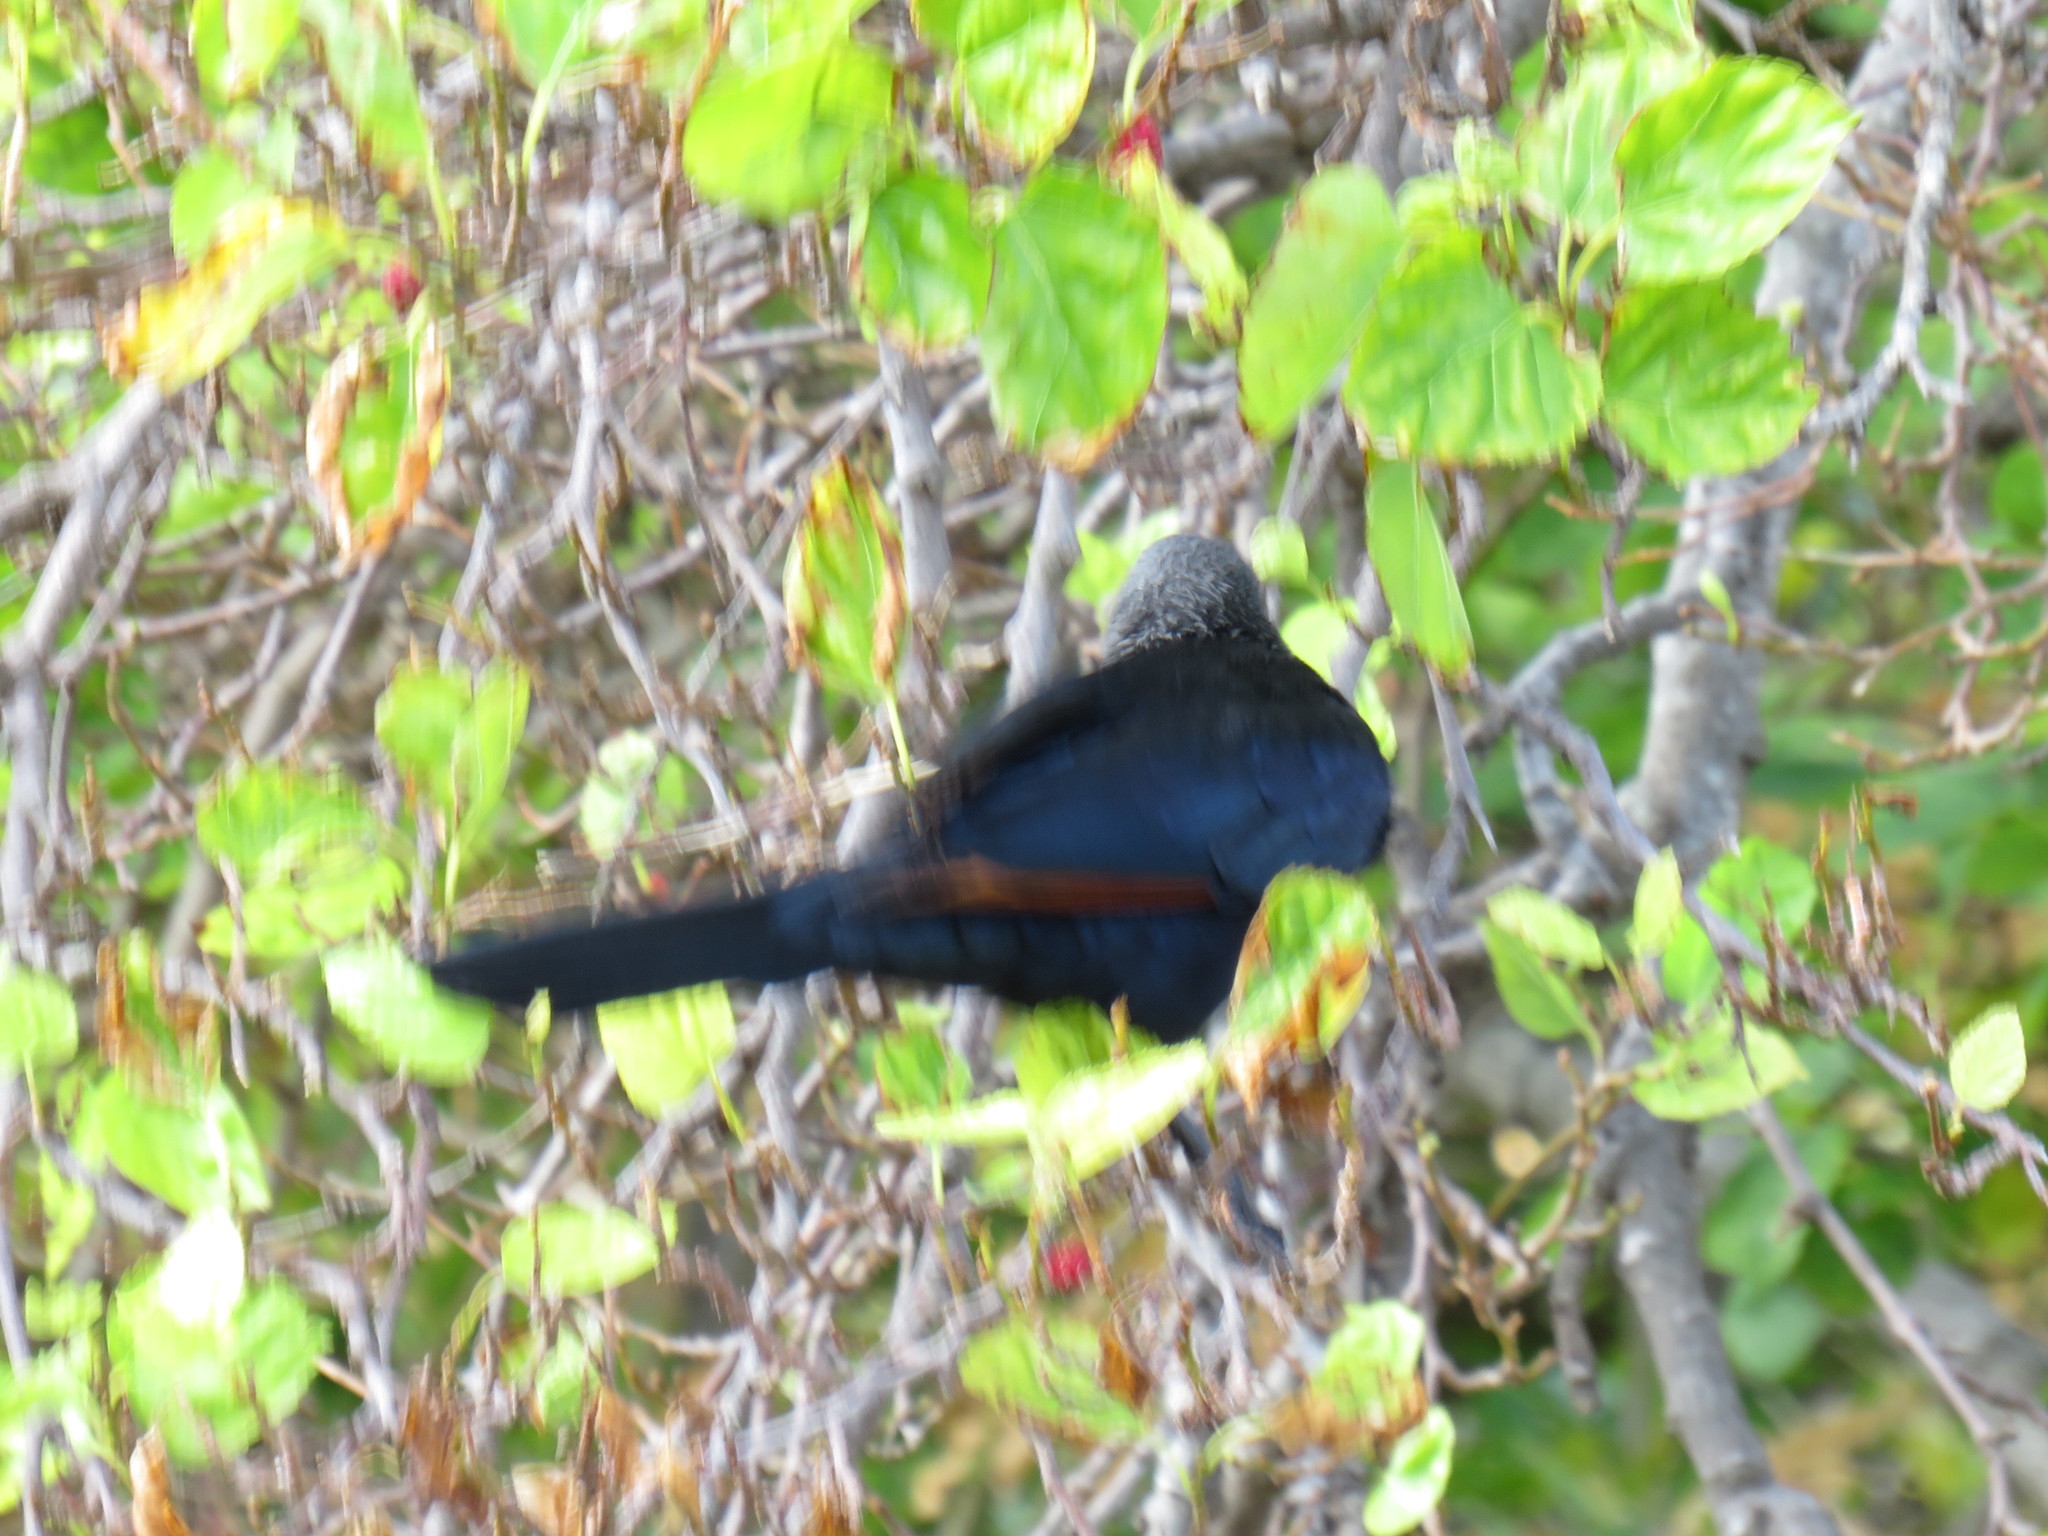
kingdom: Animalia
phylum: Chordata
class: Aves
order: Passeriformes
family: Sturnidae
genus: Onychognathus
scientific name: Onychognathus morio
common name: Red-winged starling
